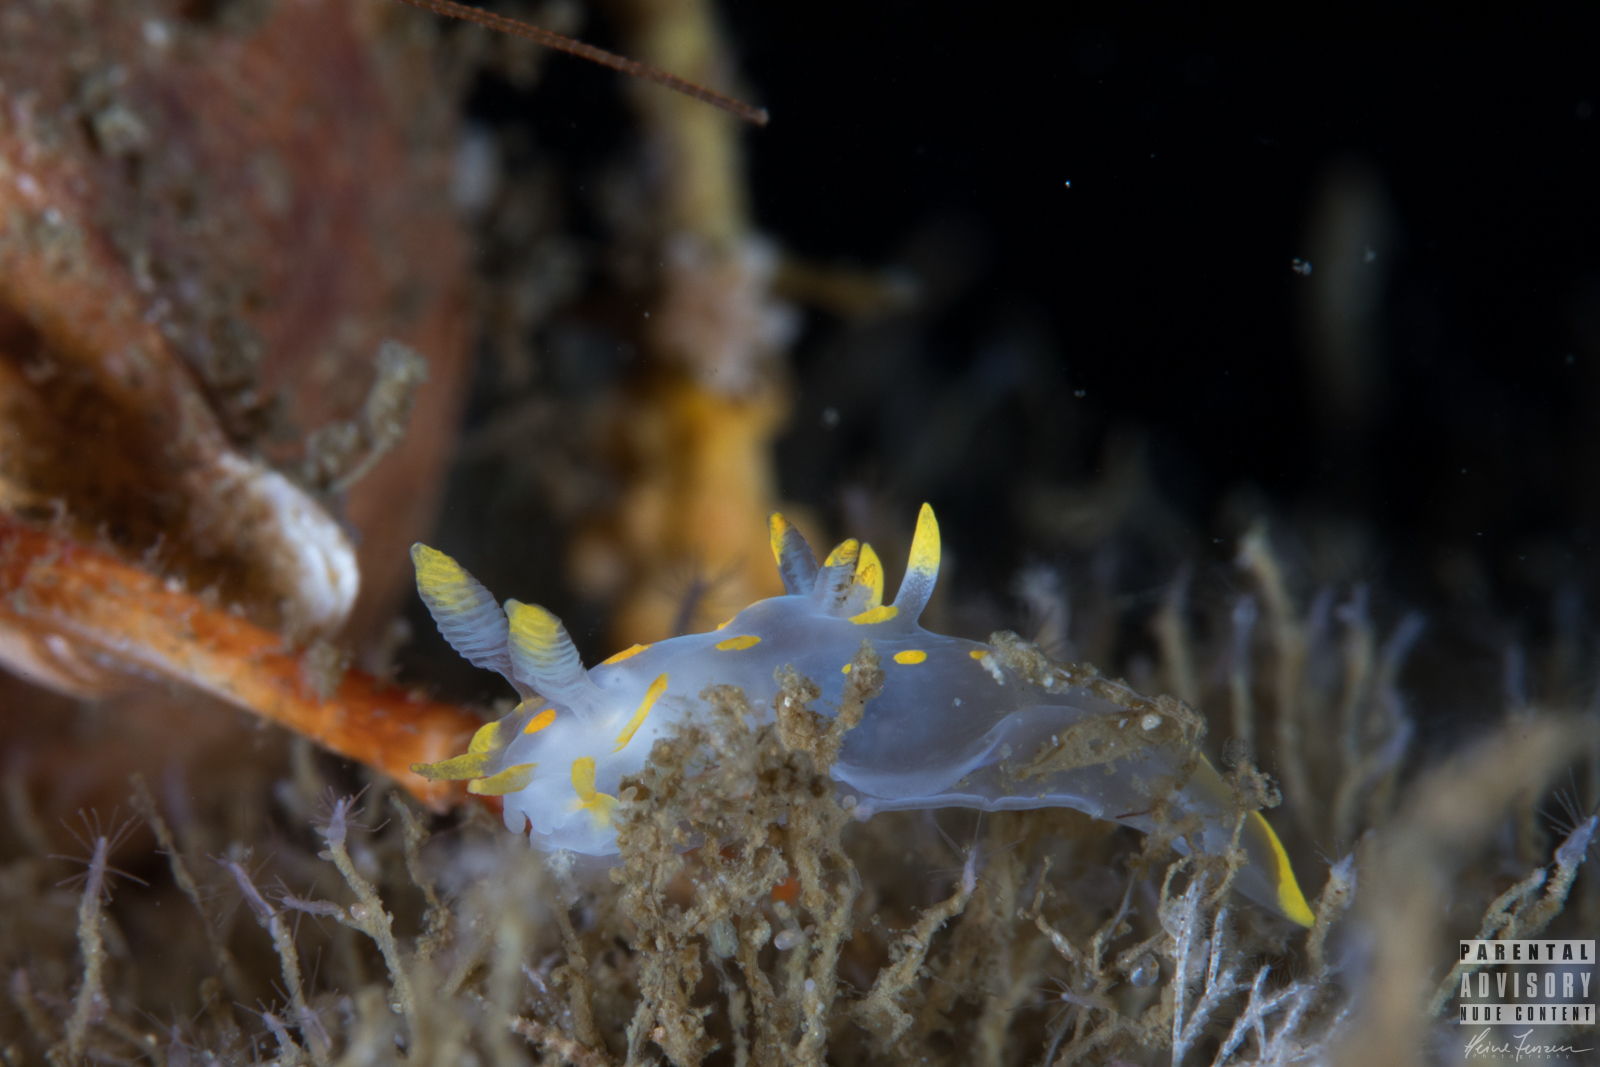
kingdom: Animalia
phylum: Mollusca
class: Gastropoda
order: Nudibranchia
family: Polyceridae
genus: Polycera
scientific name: Polycera quadrilineata
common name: Four-striped polycera
